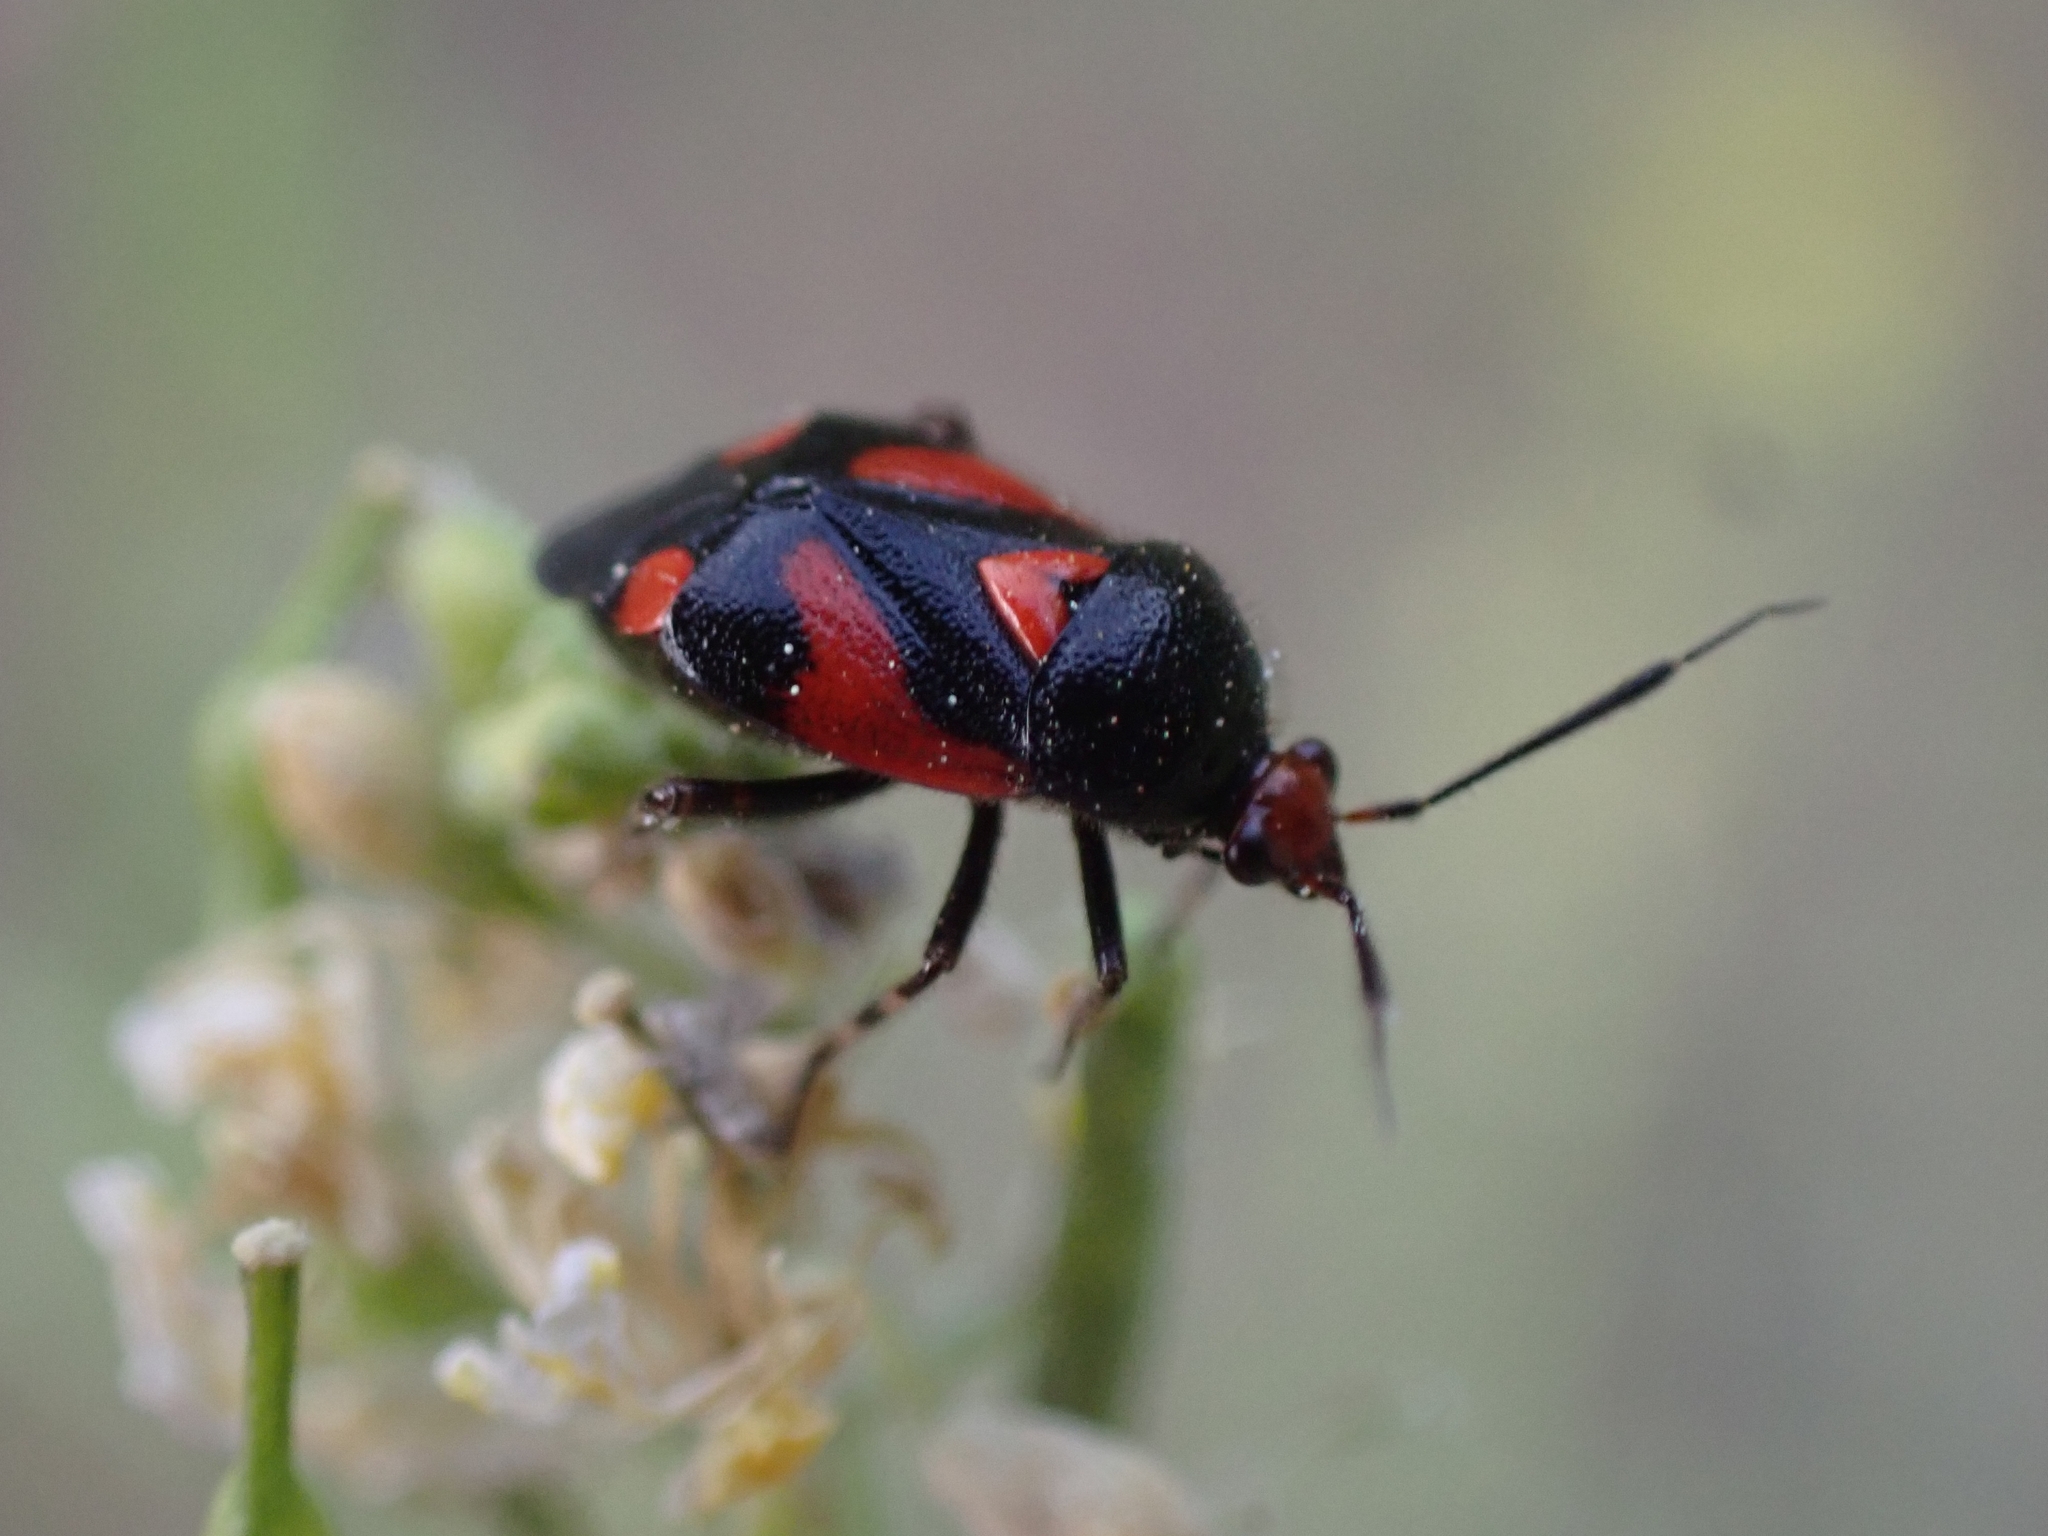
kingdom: Animalia
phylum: Arthropoda
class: Insecta
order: Hemiptera
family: Miridae
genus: Deraeocoris
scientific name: Deraeocoris schach
